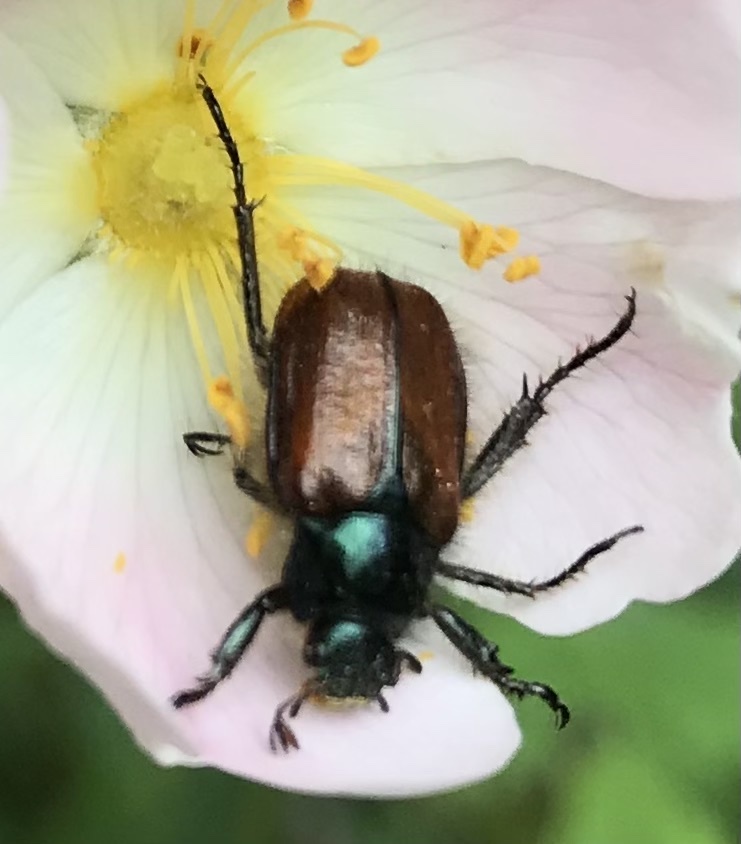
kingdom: Animalia
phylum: Arthropoda
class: Insecta
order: Coleoptera
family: Scarabaeidae
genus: Phyllopertha
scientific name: Phyllopertha horticola
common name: Garden chafer
